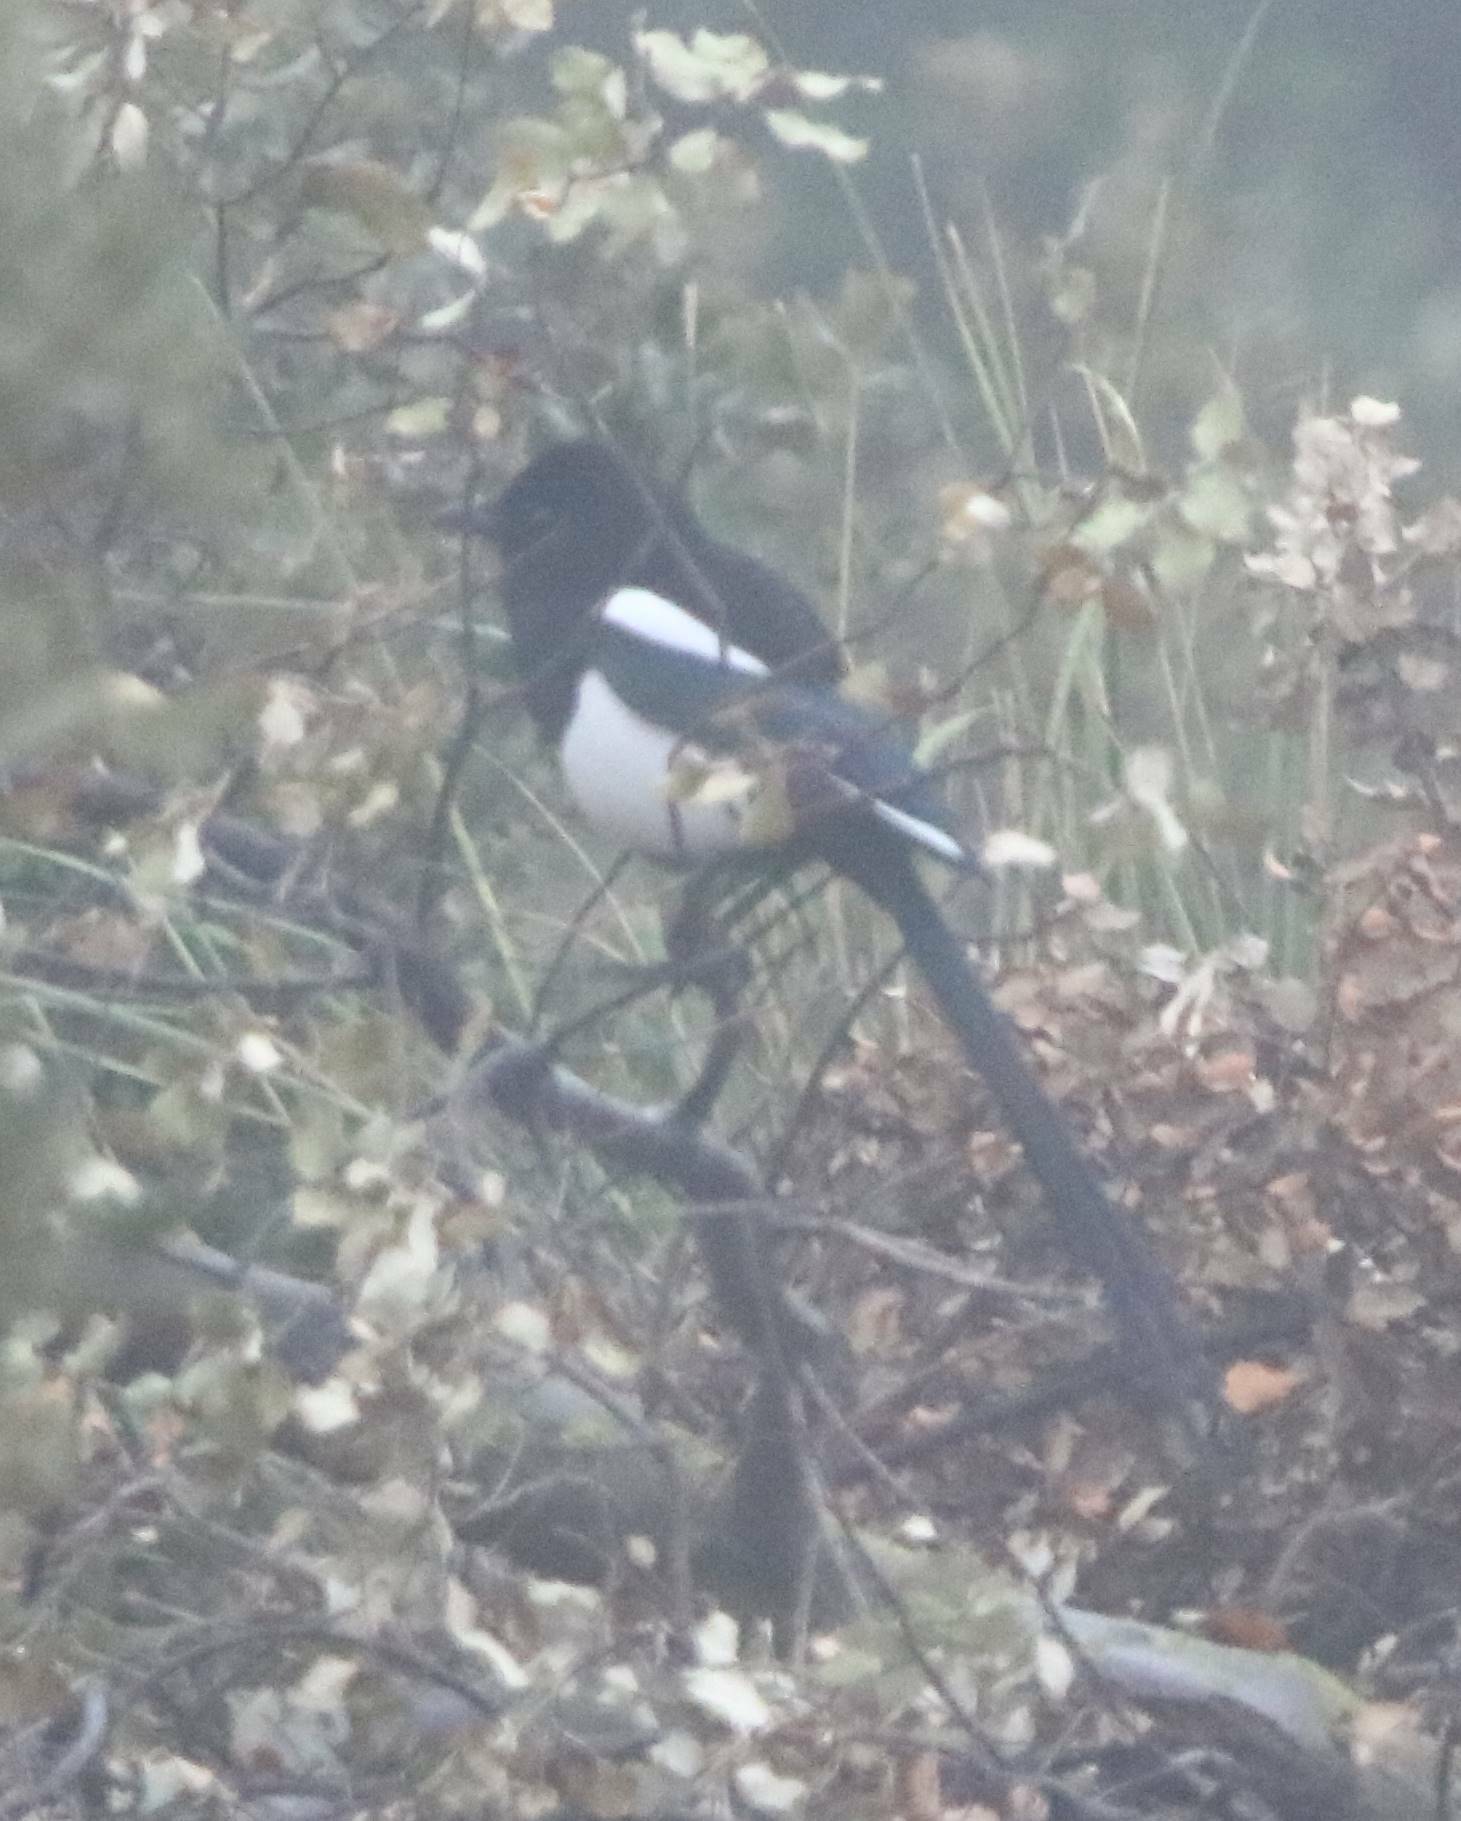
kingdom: Animalia
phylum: Chordata
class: Aves
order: Passeriformes
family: Corvidae
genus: Pica
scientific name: Pica mauritanica
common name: Maghreb magpie
